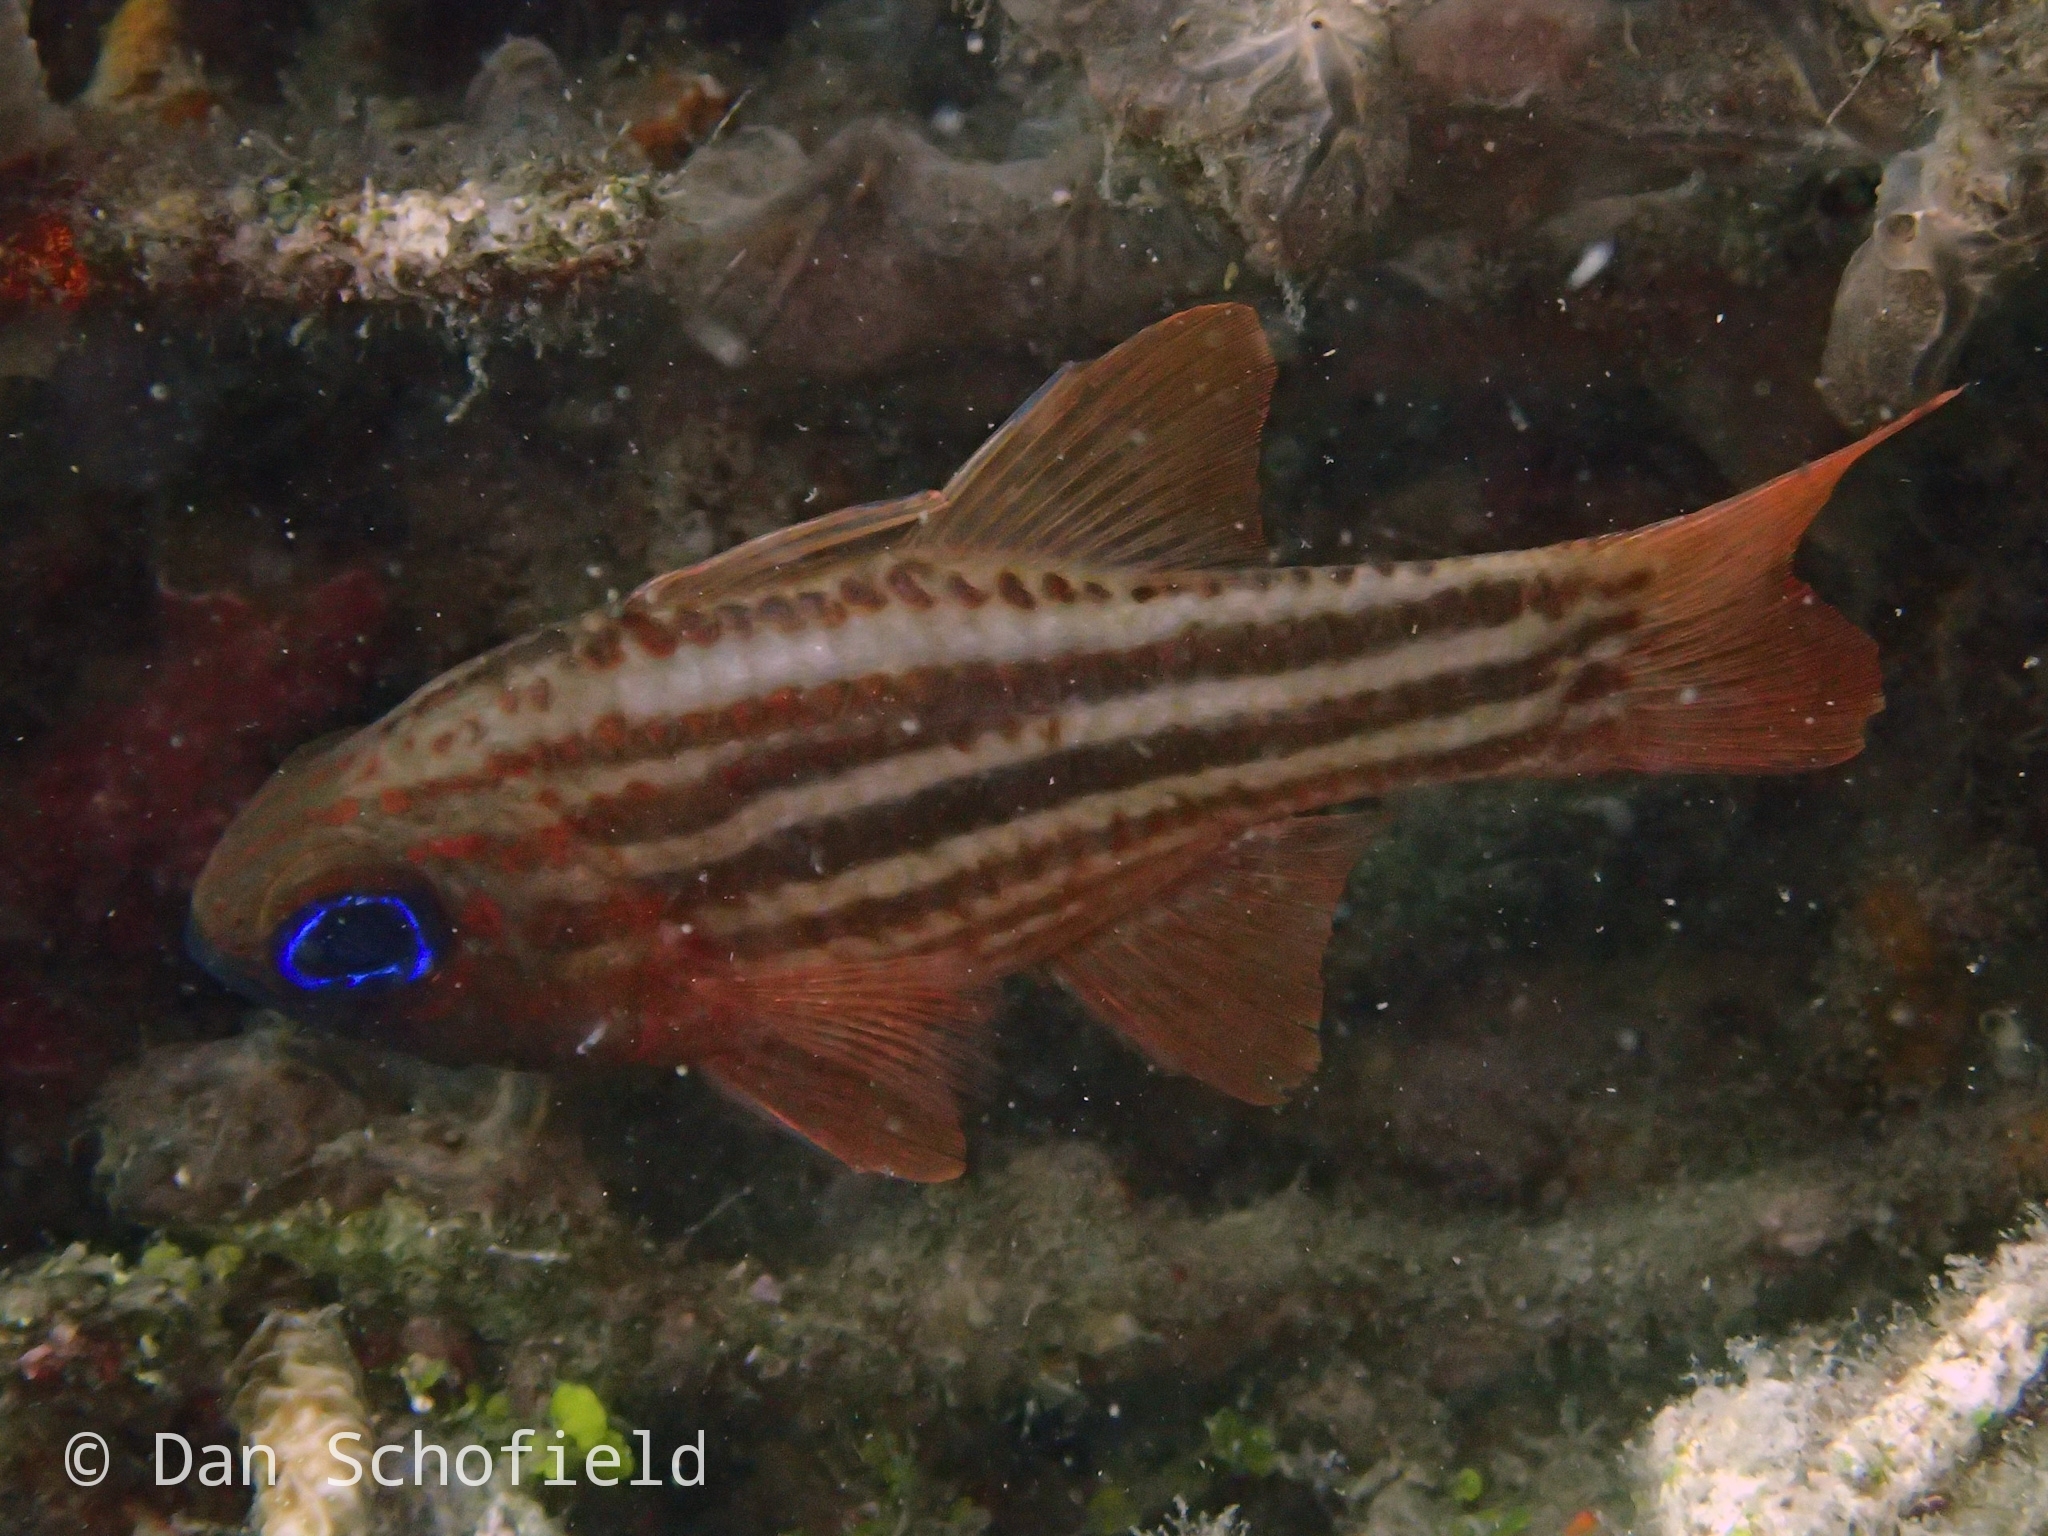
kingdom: Animalia
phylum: Chordata
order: Perciformes
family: Apogonidae
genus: Ostorhinchus
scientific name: Ostorhinchus compressus
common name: Ochre-striped cardinalfish
